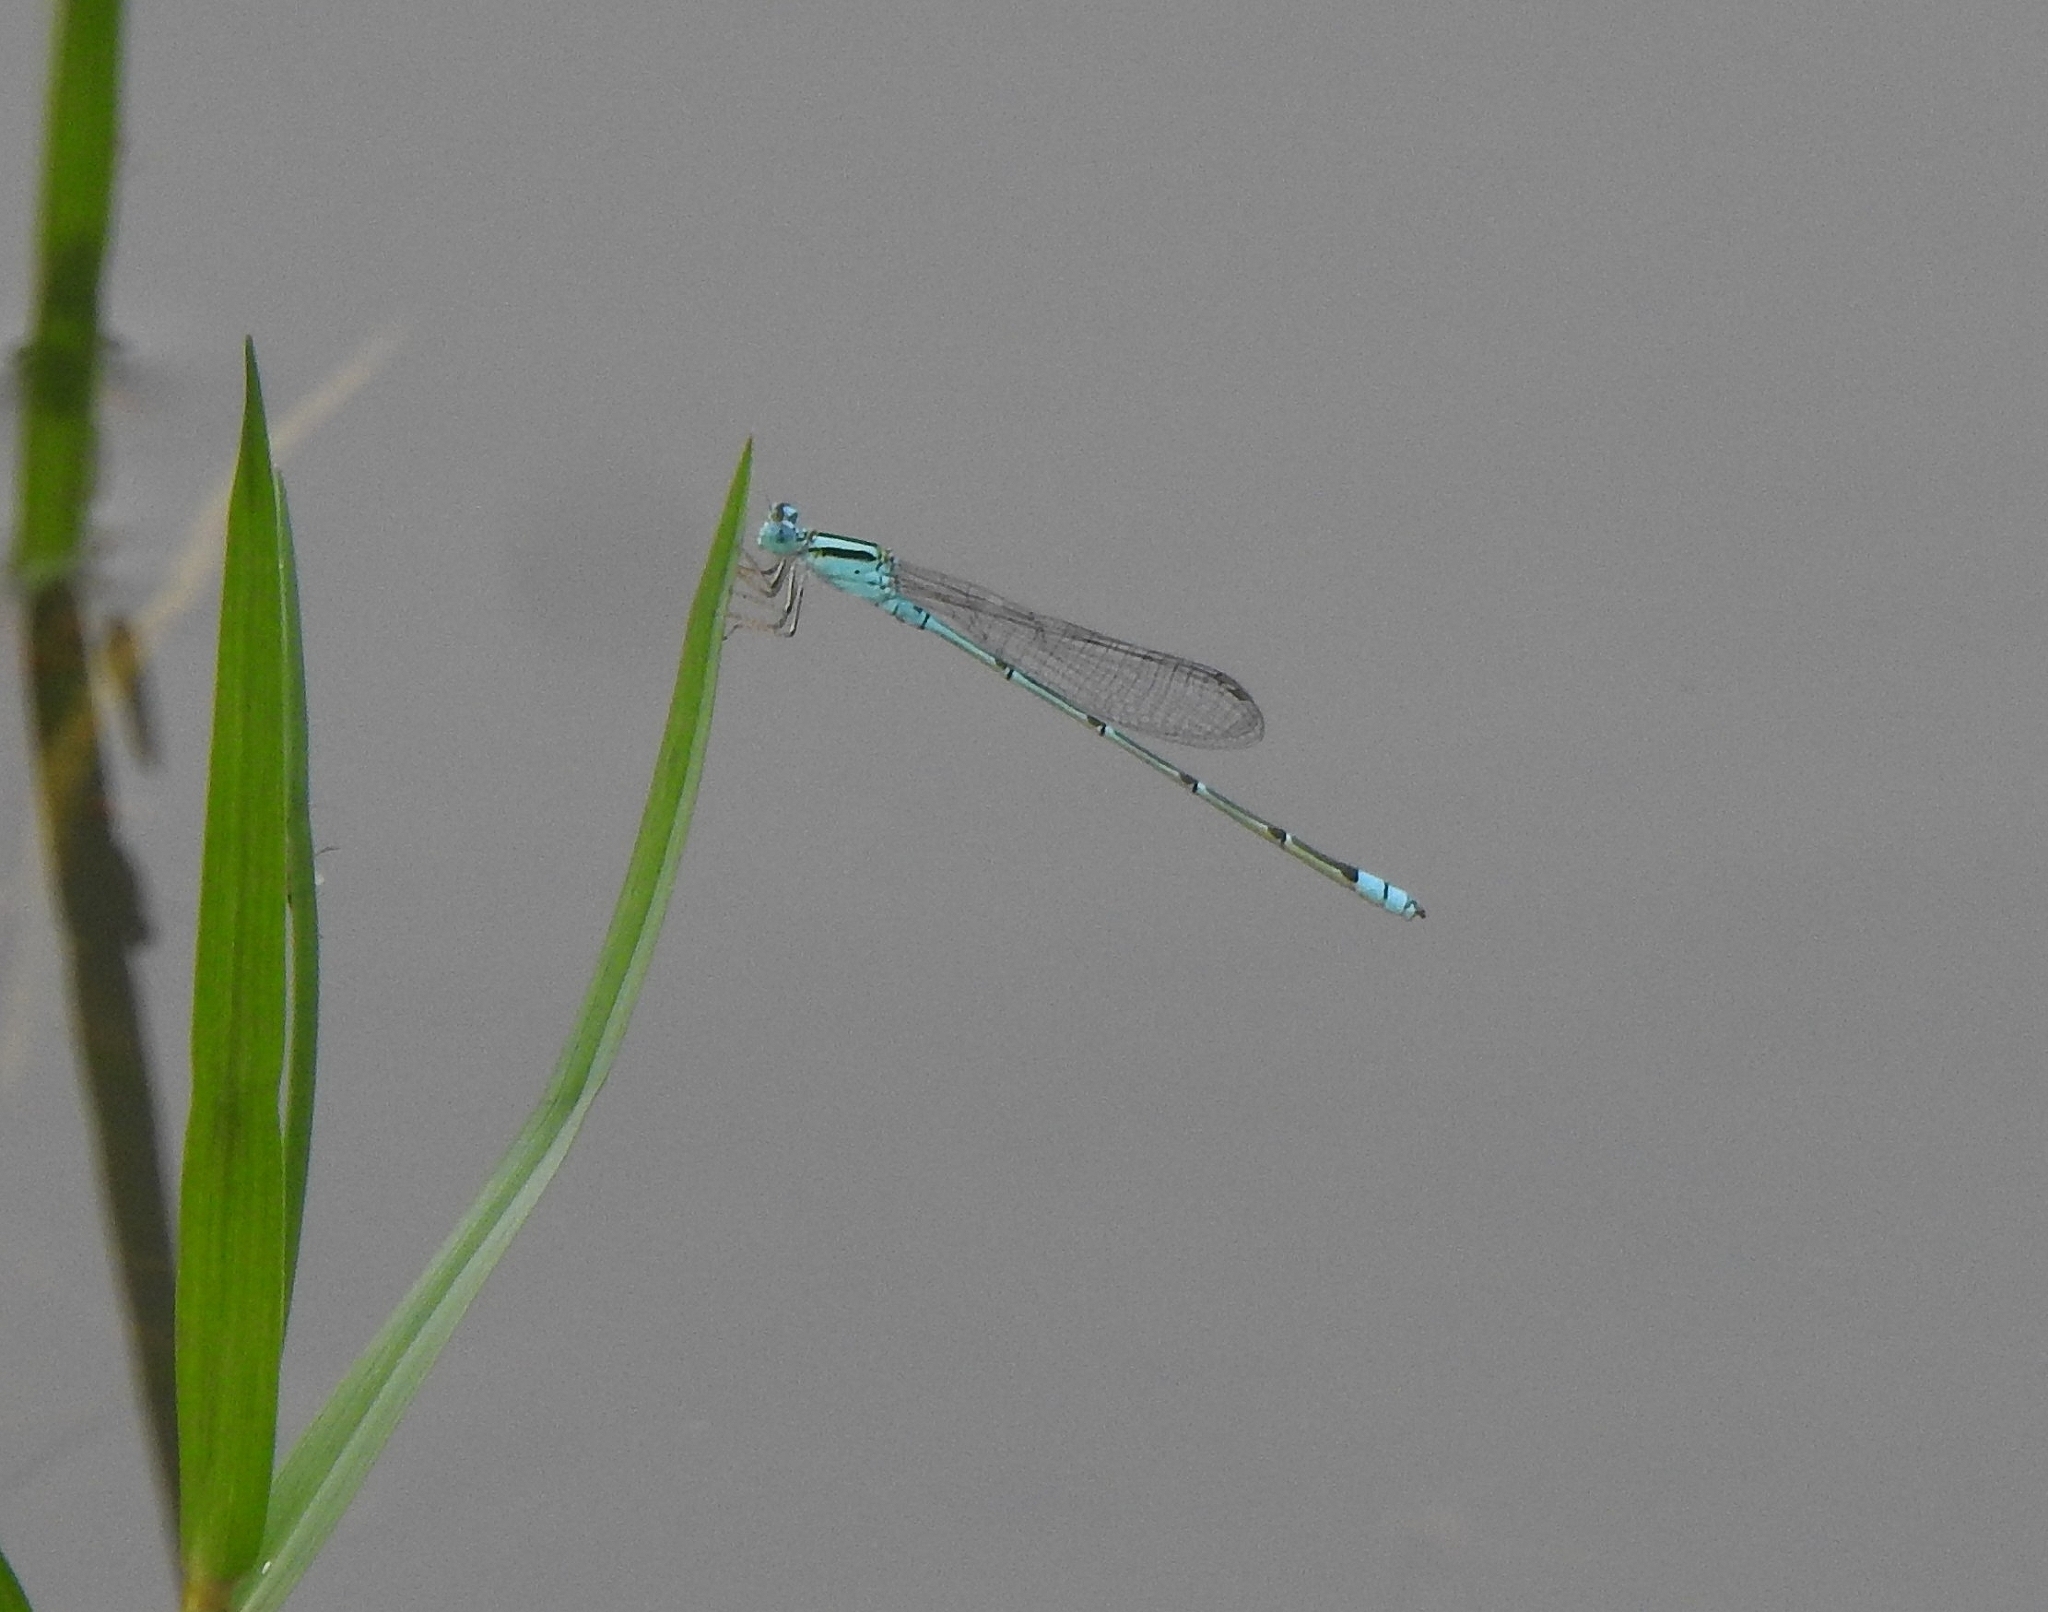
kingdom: Animalia
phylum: Arthropoda
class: Insecta
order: Odonata
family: Coenagrionidae
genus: Pseudagrion
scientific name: Pseudagrion microcephalum
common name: Blue riverdamsel
